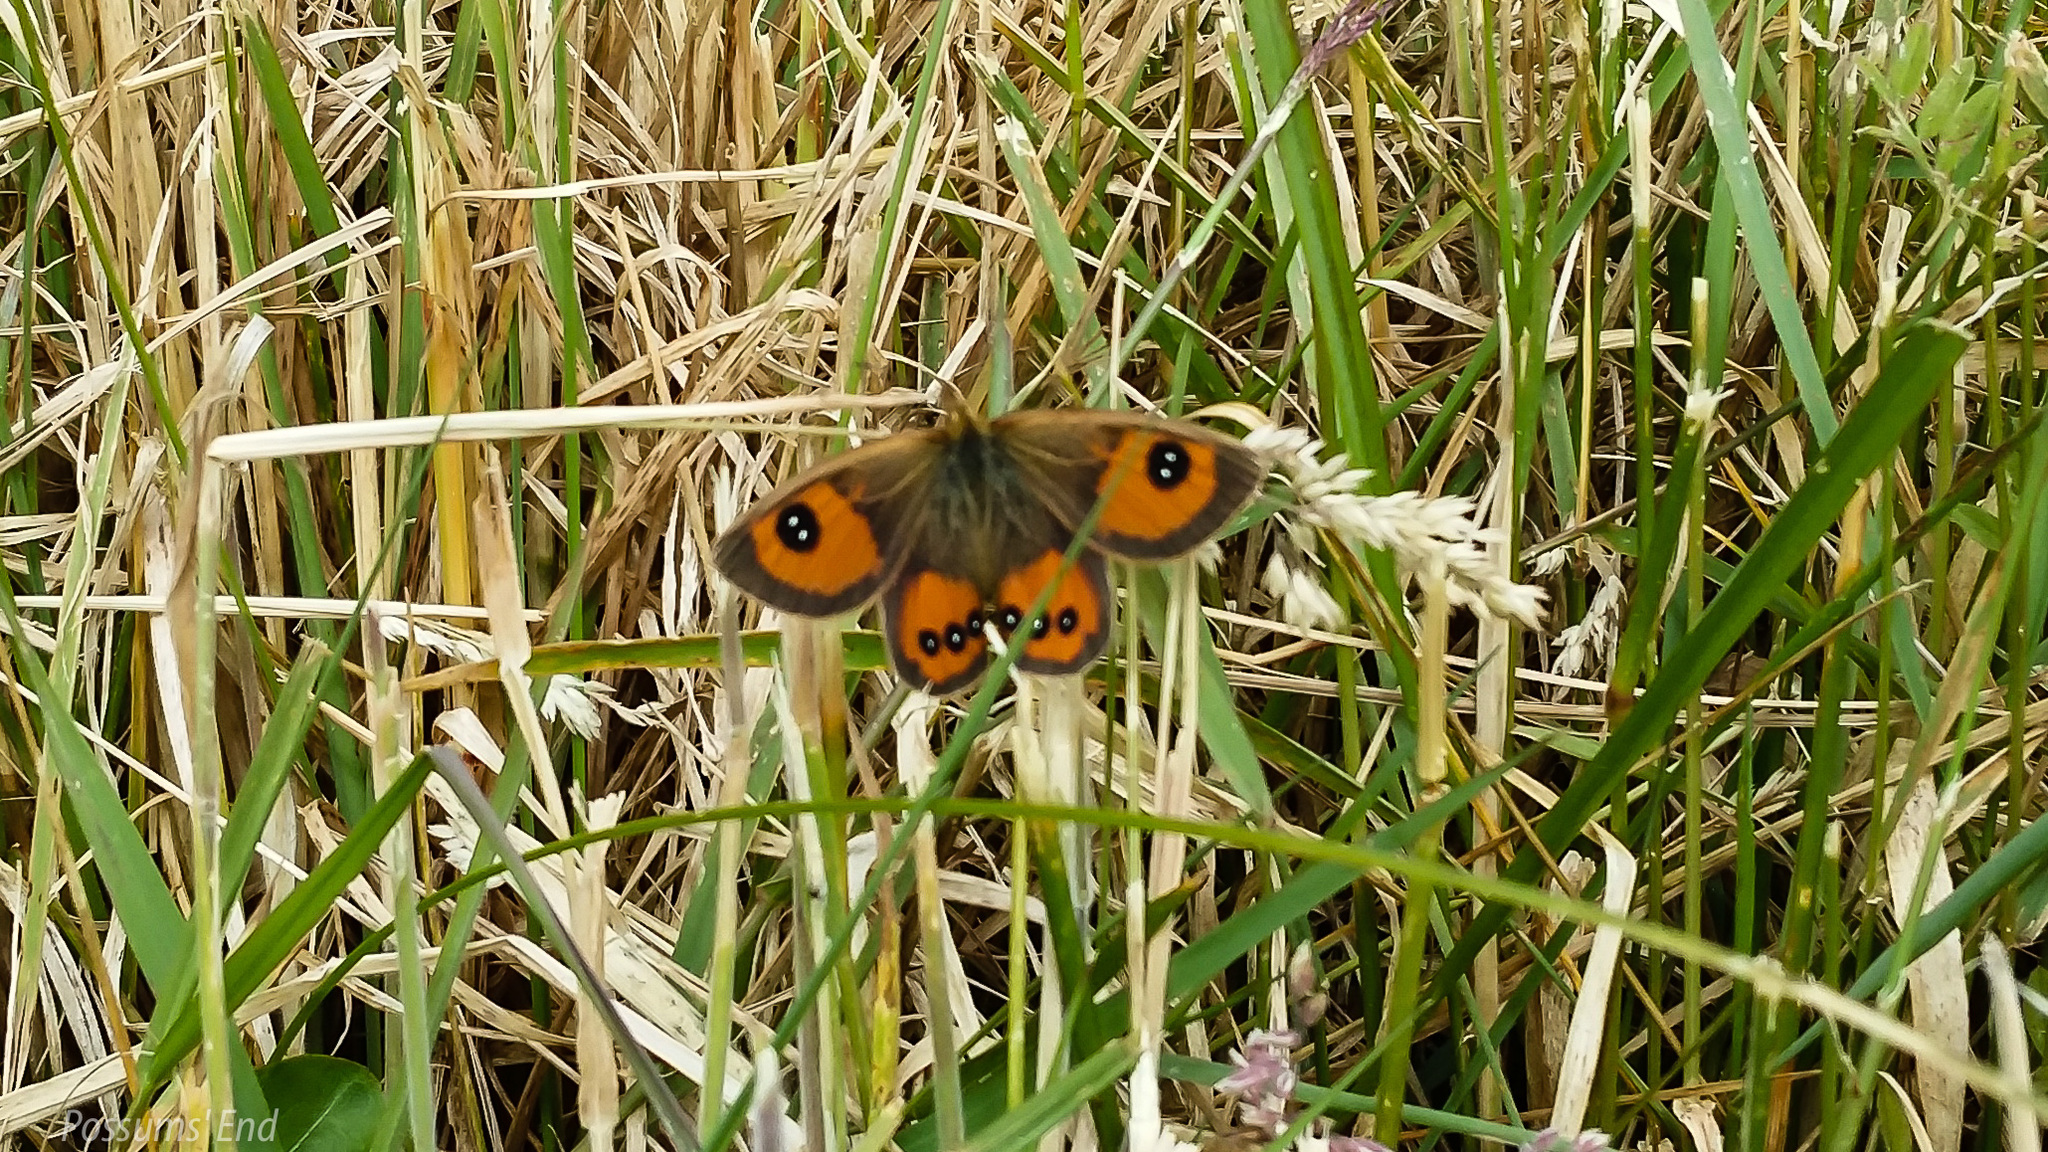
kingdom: Animalia
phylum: Arthropoda
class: Insecta
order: Lepidoptera
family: Nymphalidae
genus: Argyrophenga
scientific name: Argyrophenga antipodum
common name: Common tussock butterfly
